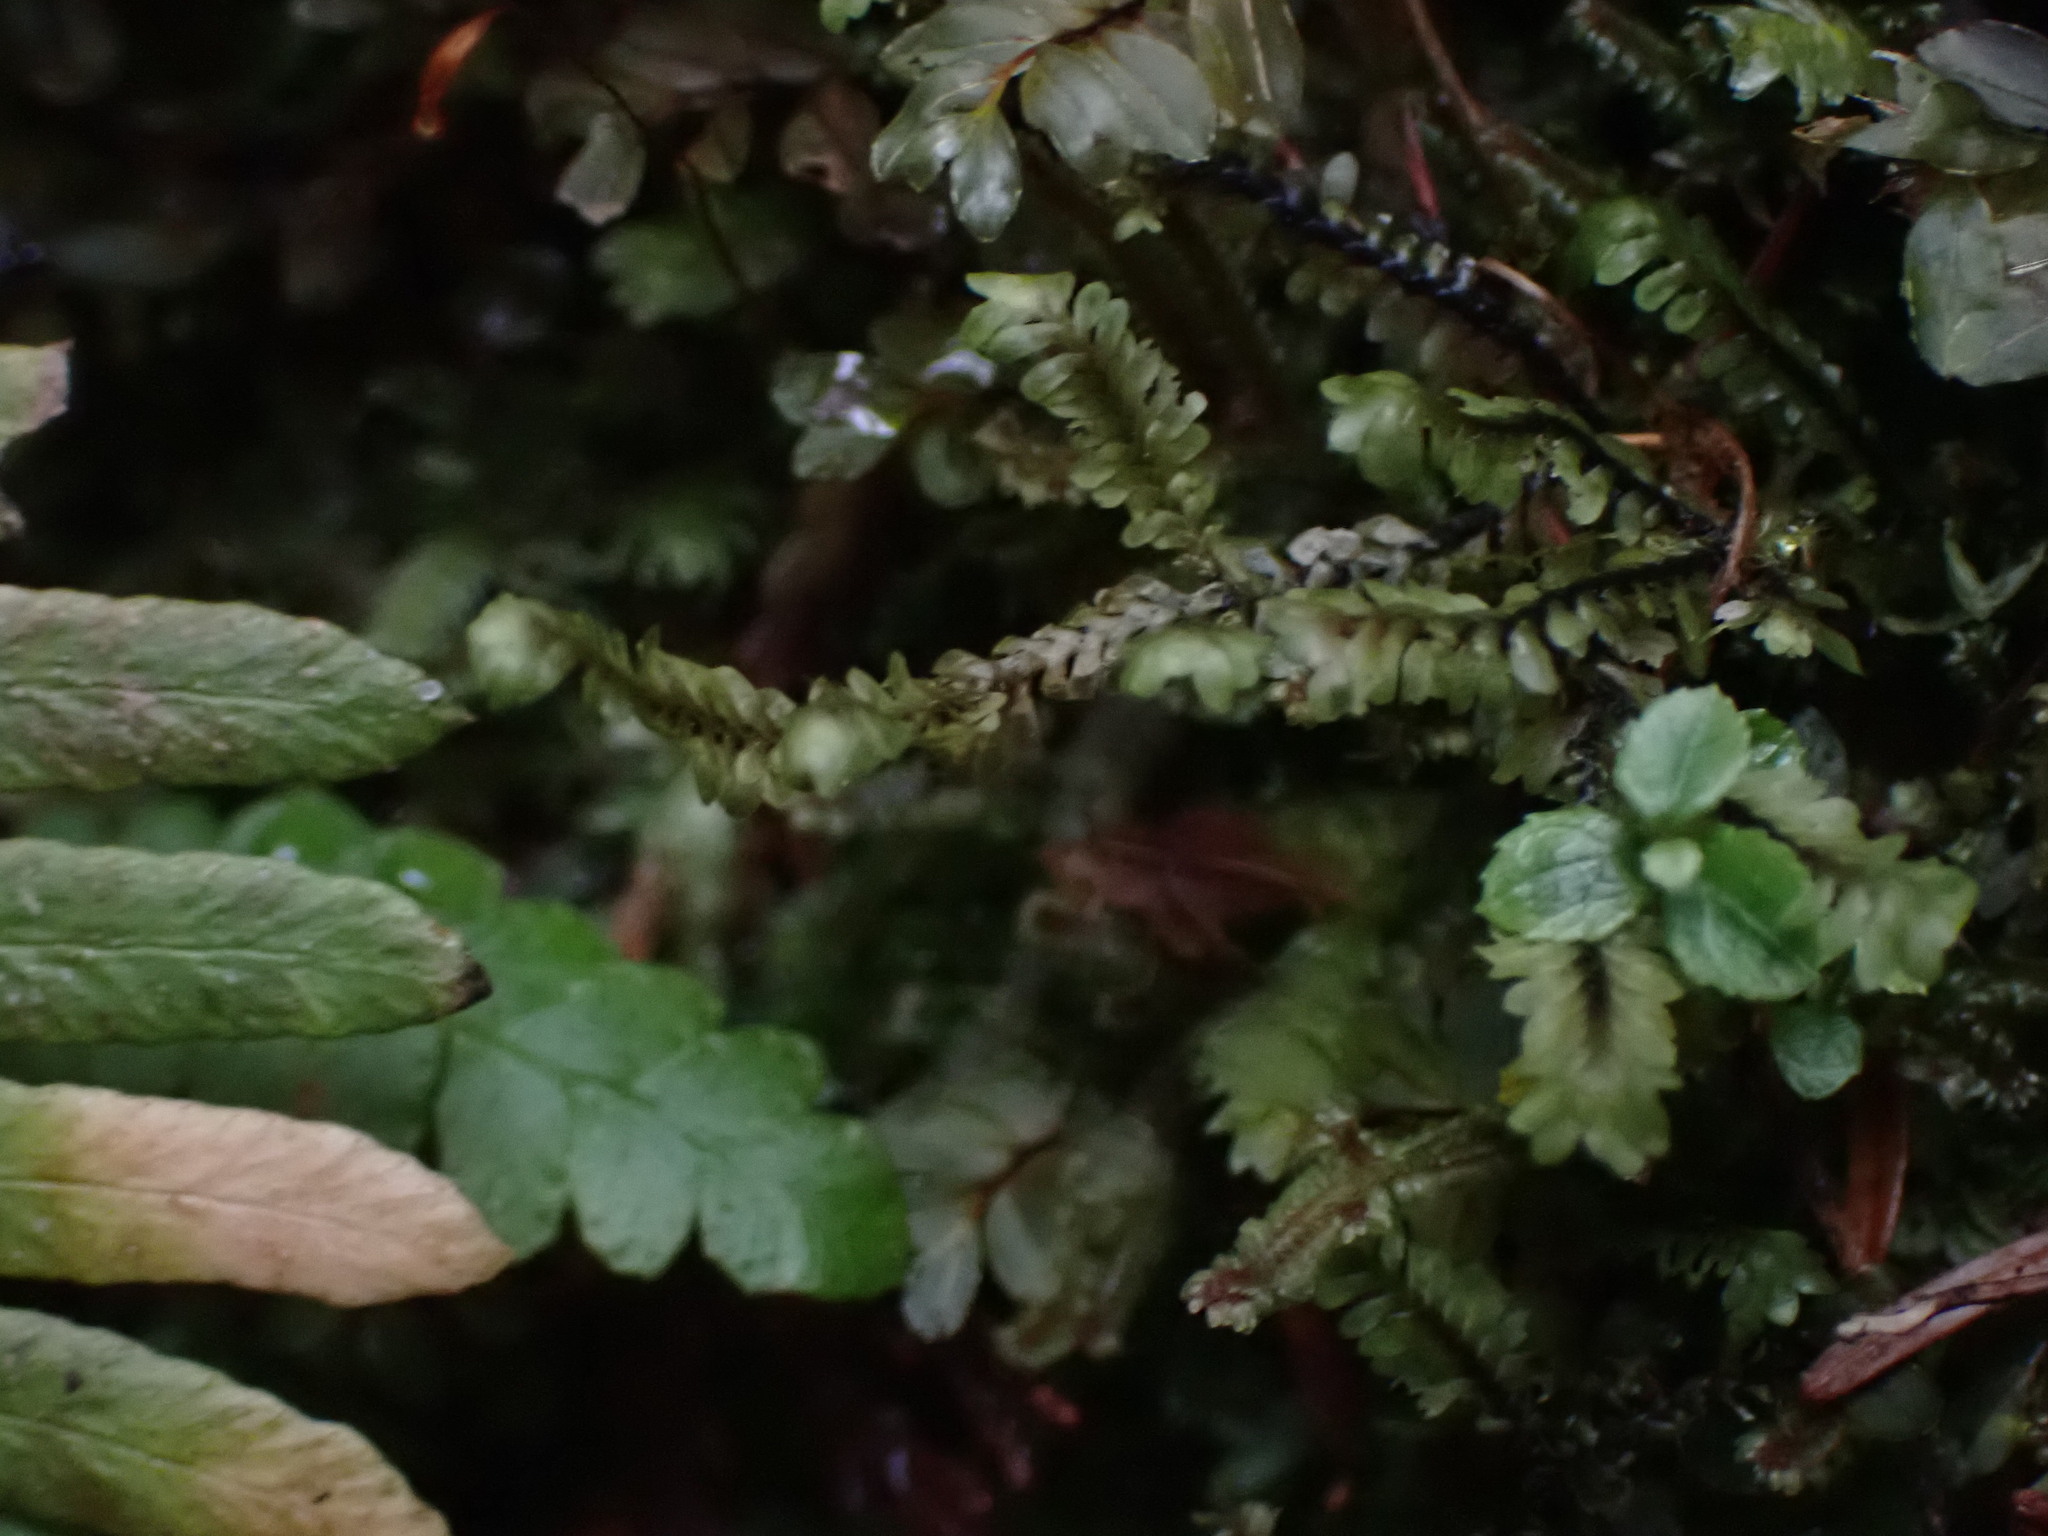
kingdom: Plantae
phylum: Marchantiophyta
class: Jungermanniopsida
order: Jungermanniales
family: Scapaniaceae
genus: Macrodiplophyllum
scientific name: Macrodiplophyllum rubrum
